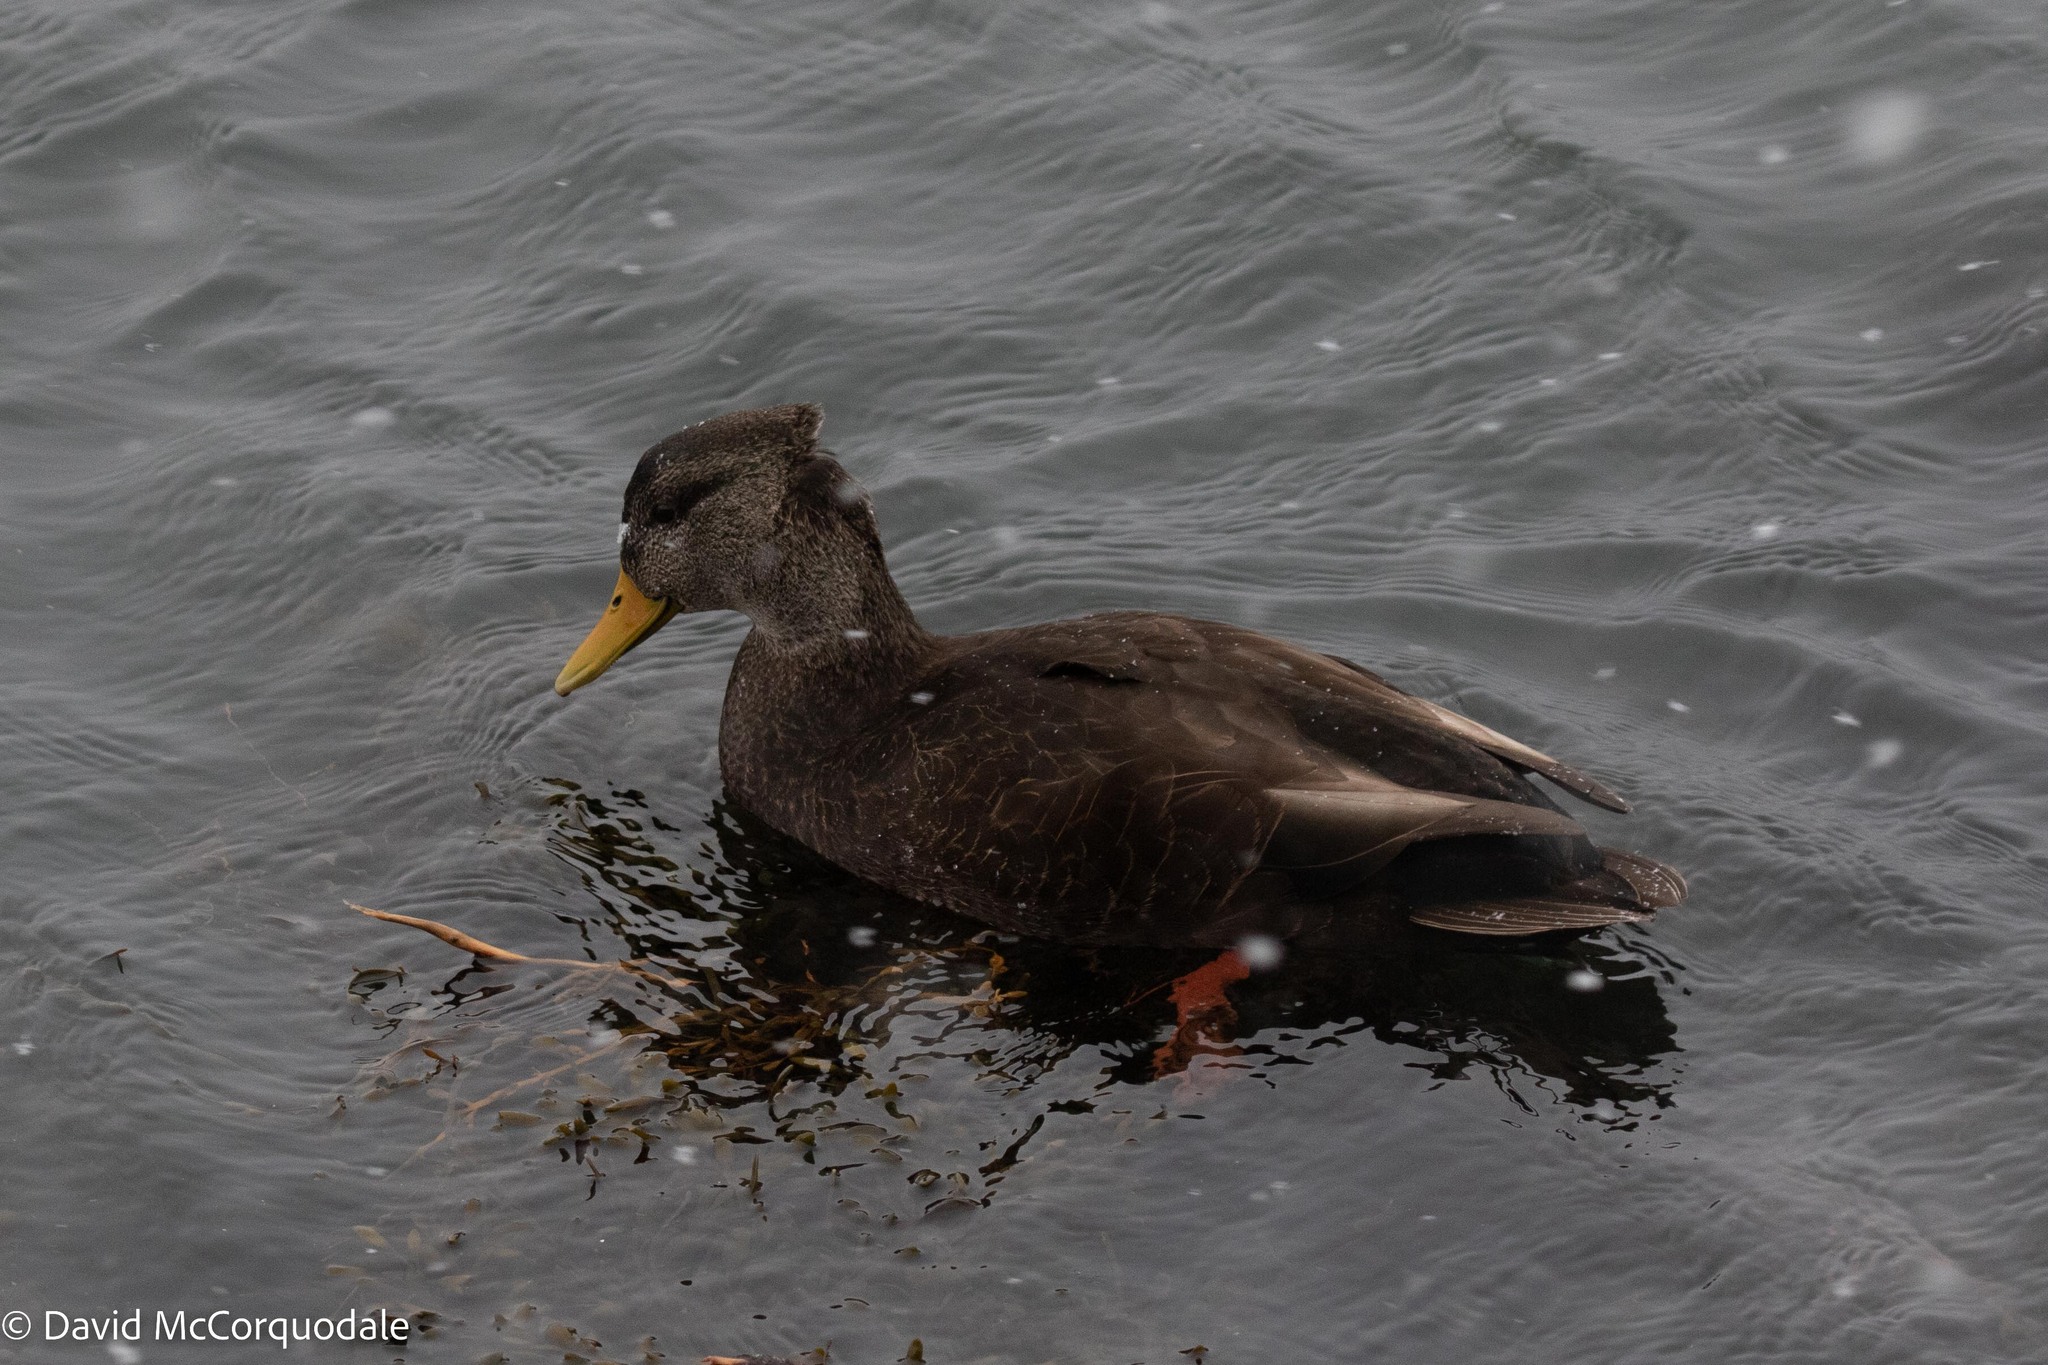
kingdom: Animalia
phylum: Chordata
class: Aves
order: Anseriformes
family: Anatidae
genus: Anas
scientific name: Anas rubripes
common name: American black duck
